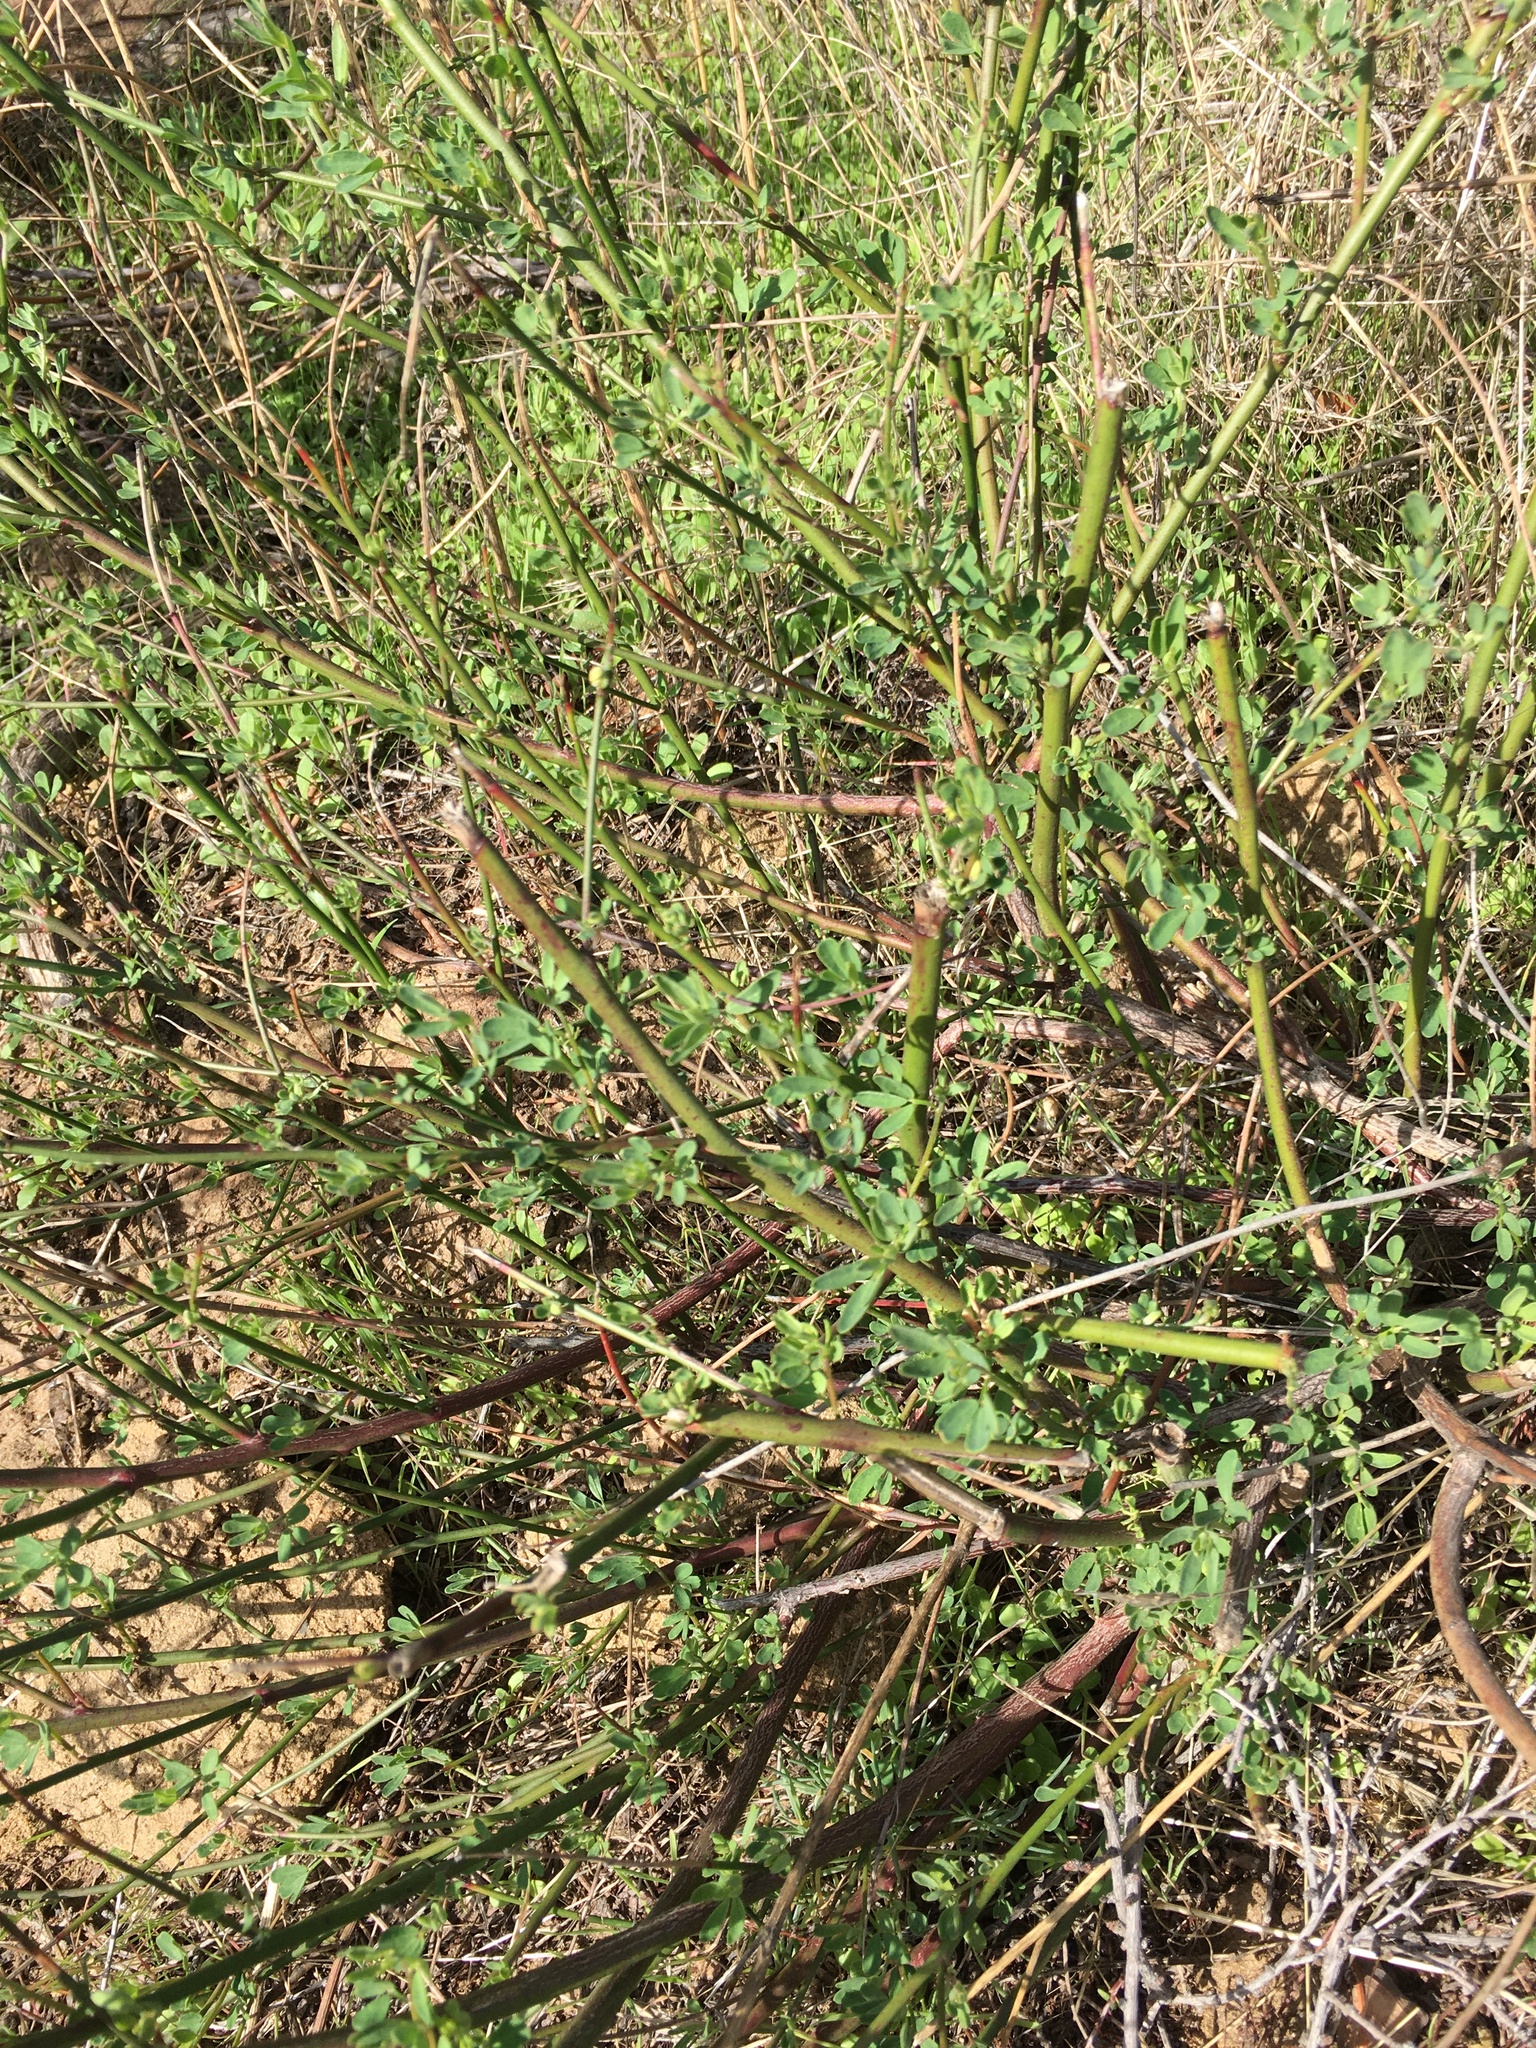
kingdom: Plantae
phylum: Tracheophyta
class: Magnoliopsida
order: Fabales
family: Fabaceae
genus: Acmispon
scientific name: Acmispon glaber
